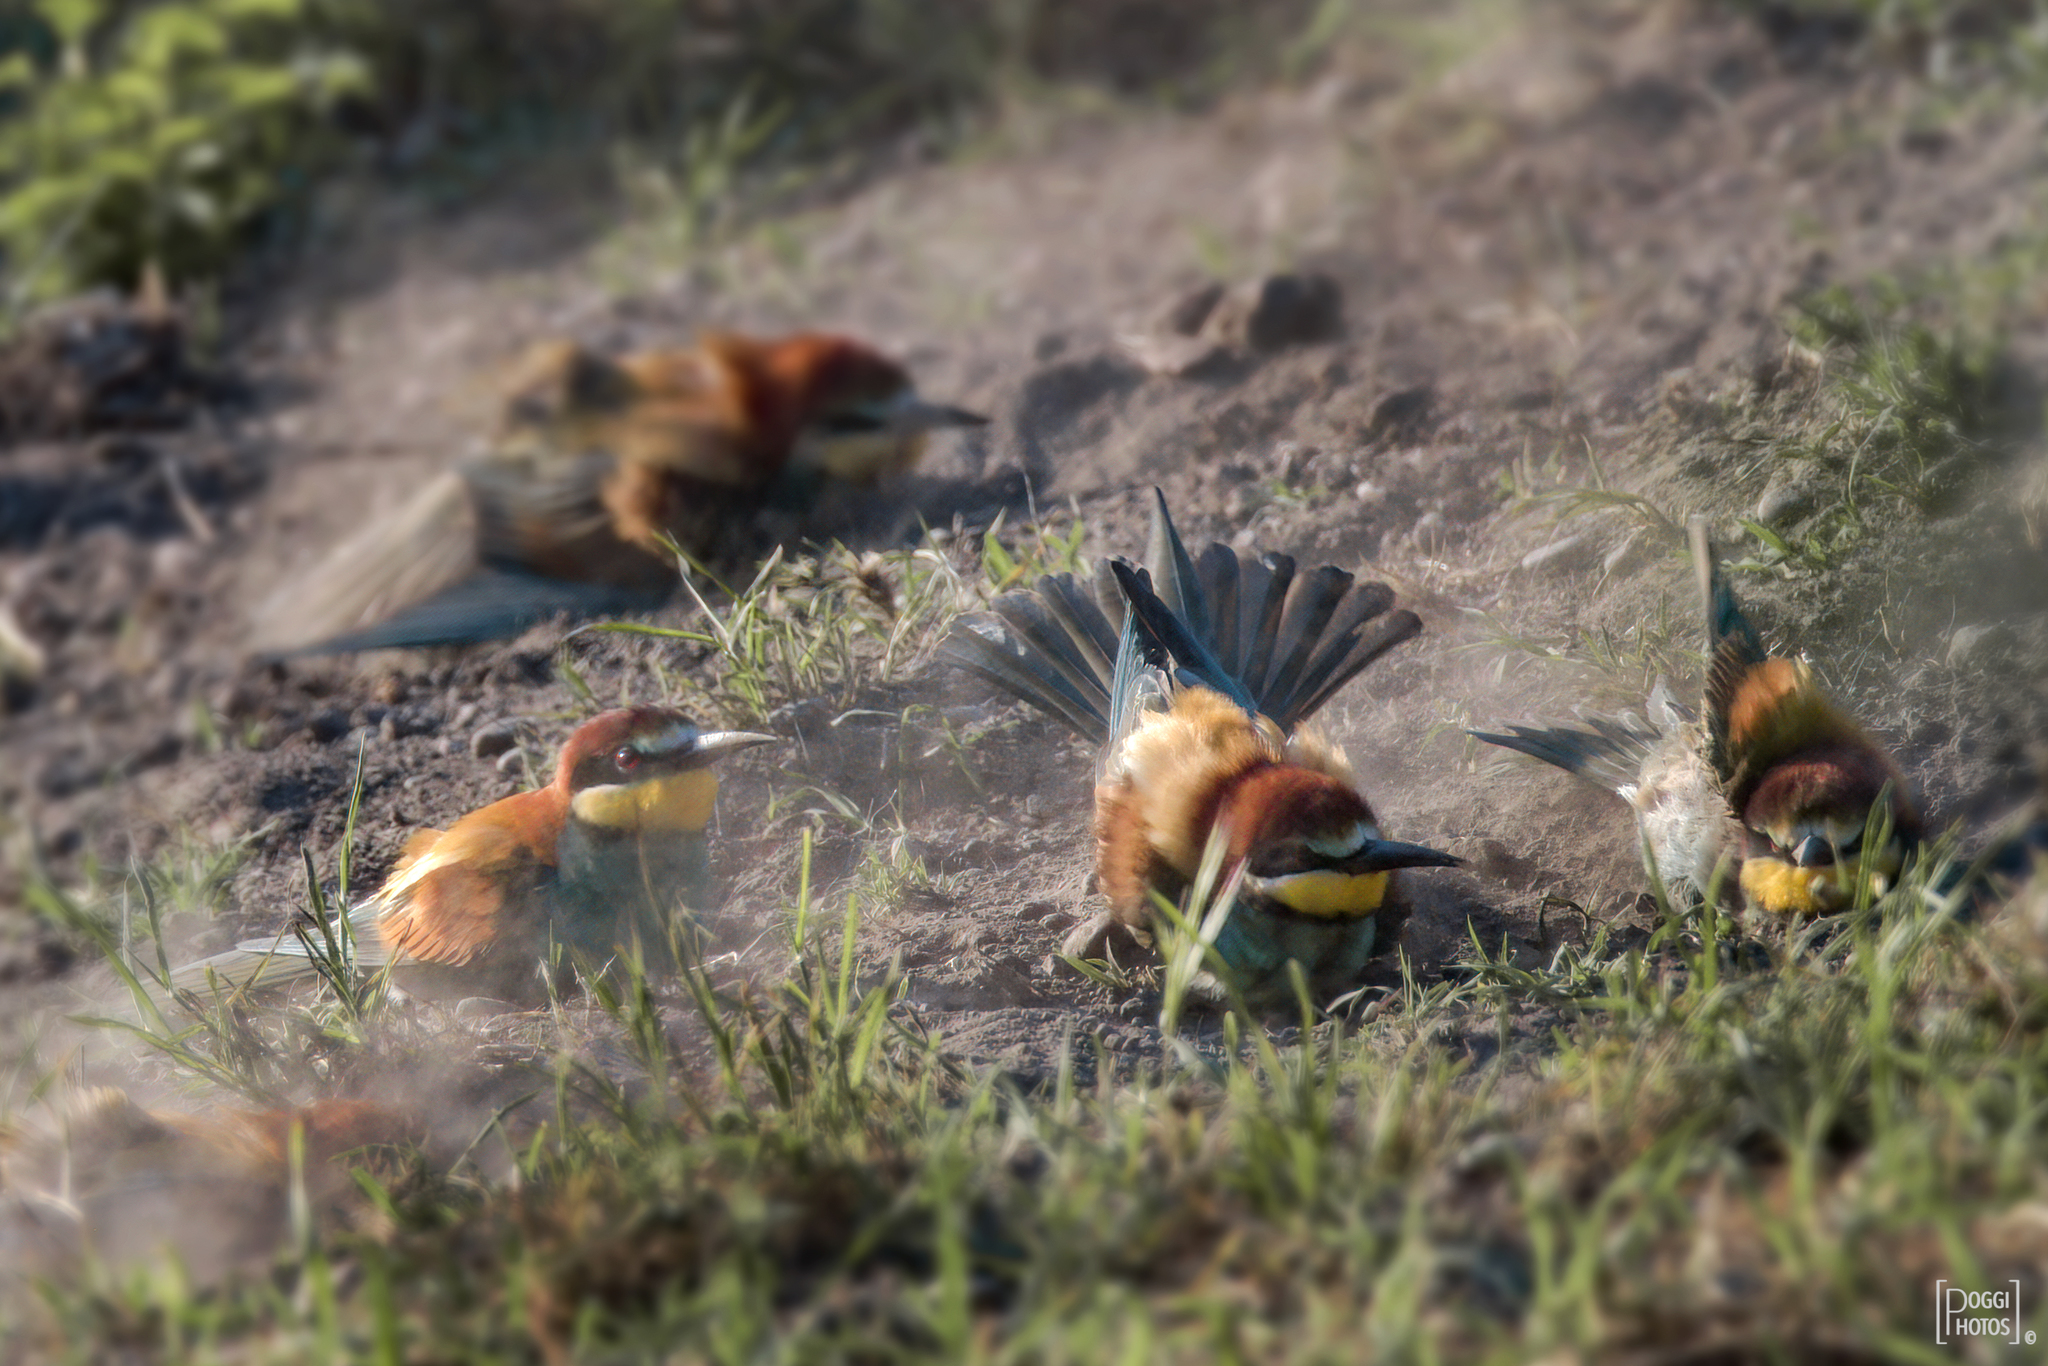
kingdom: Animalia
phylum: Chordata
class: Aves
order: Coraciiformes
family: Meropidae
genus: Merops
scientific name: Merops apiaster
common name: European bee-eater
